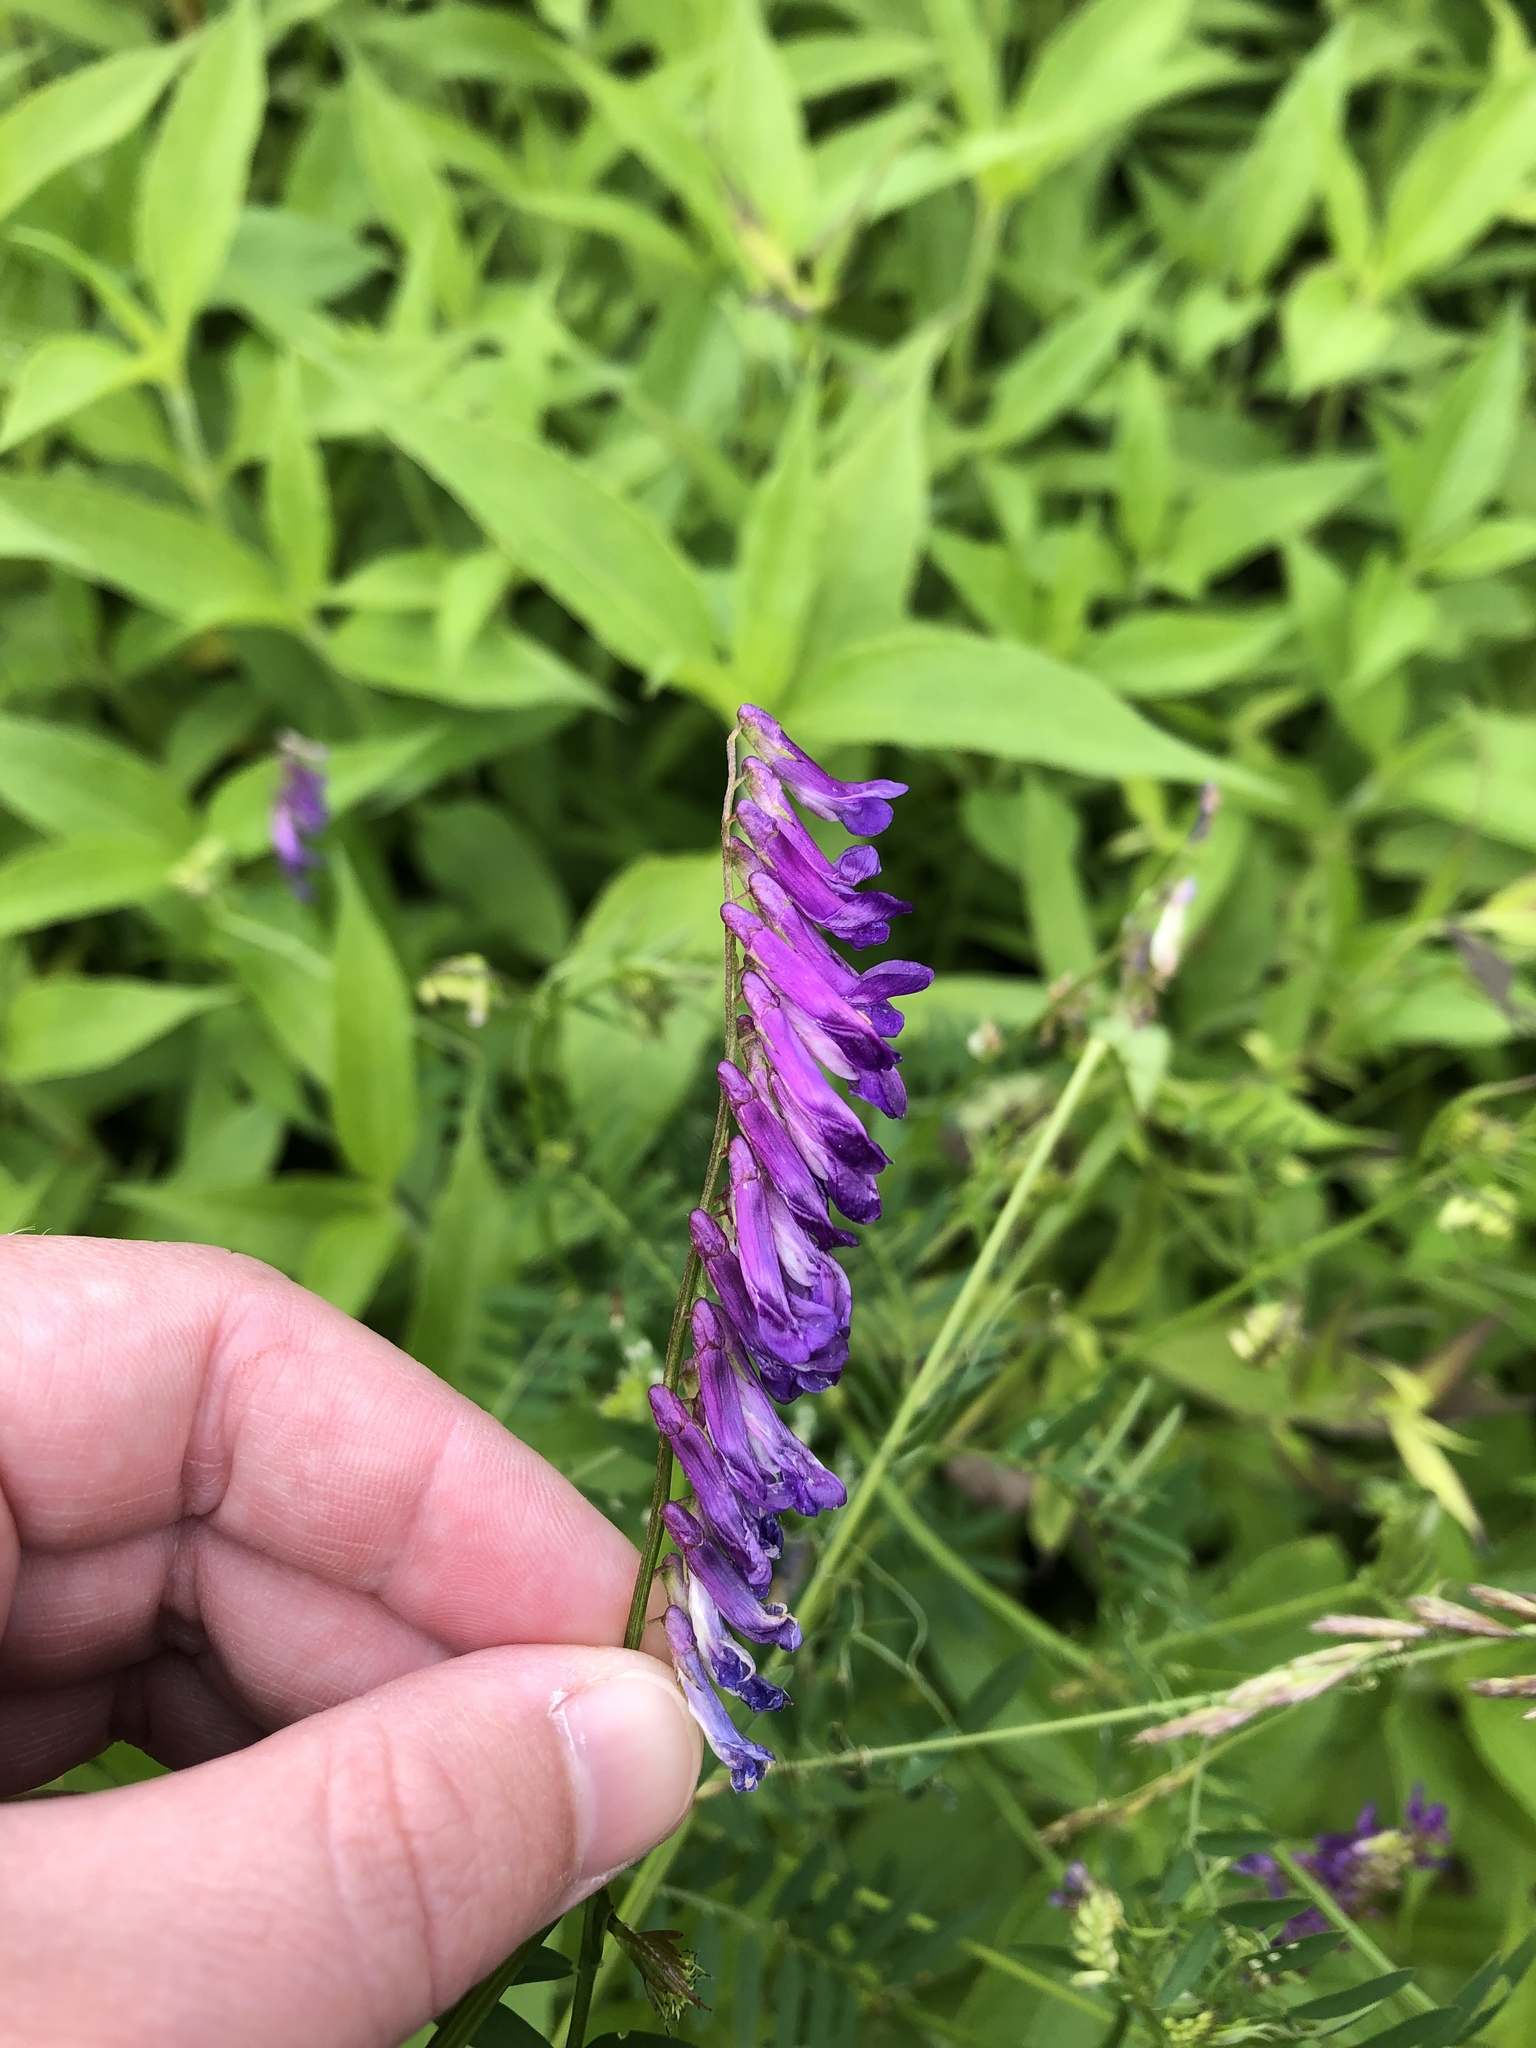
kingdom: Plantae
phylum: Tracheophyta
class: Magnoliopsida
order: Fabales
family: Fabaceae
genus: Vicia
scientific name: Vicia villosa
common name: Fodder vetch
